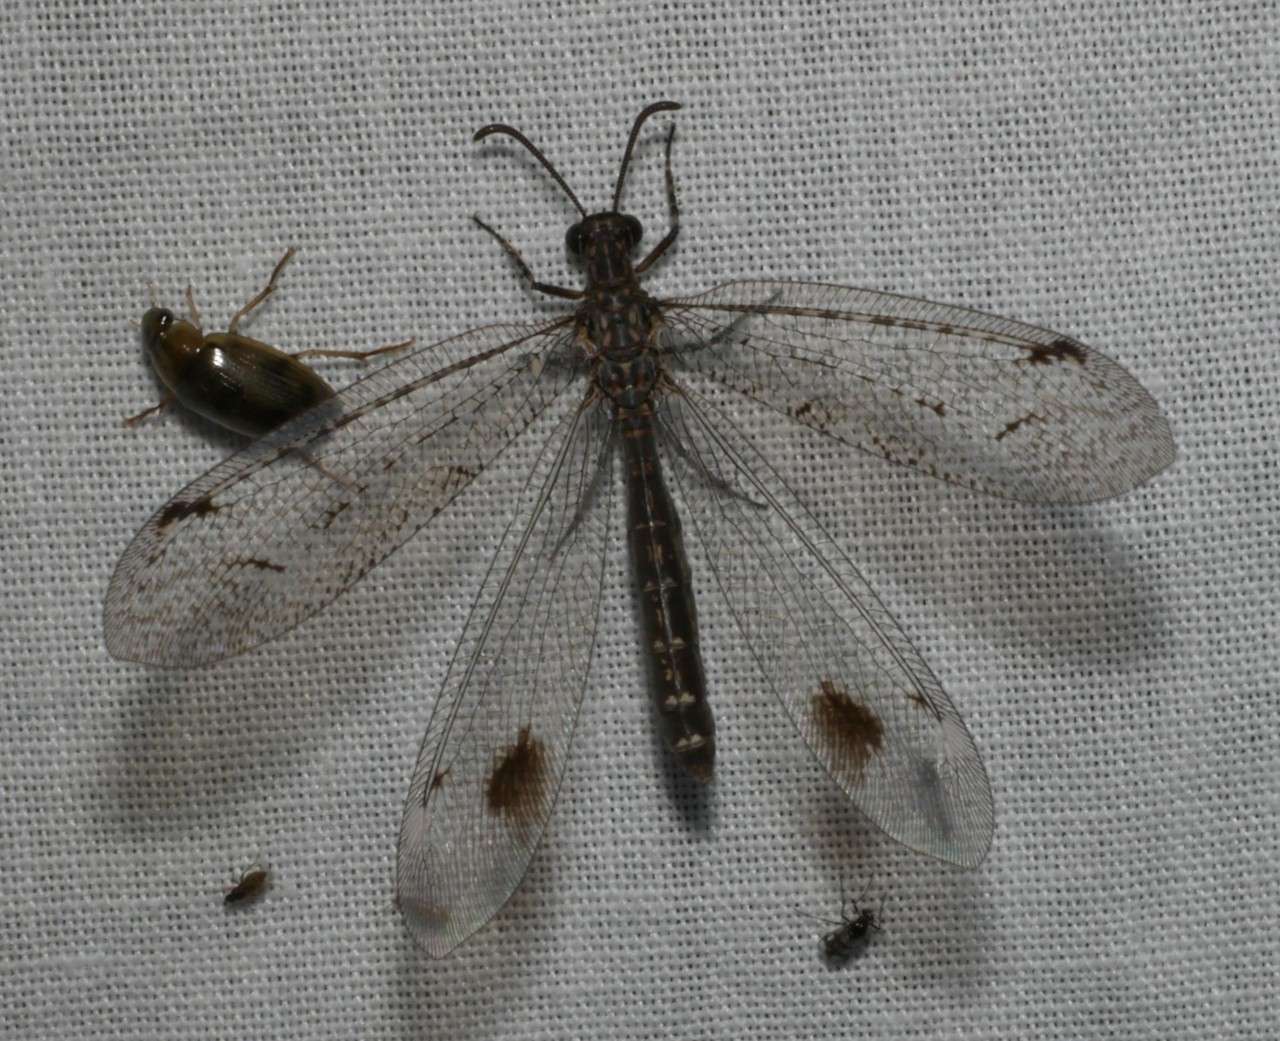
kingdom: Animalia
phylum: Arthropoda
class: Insecta
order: Neuroptera
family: Myrmeleontidae
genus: Austrogymnocnemia
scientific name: Austrogymnocnemia bipunctata
